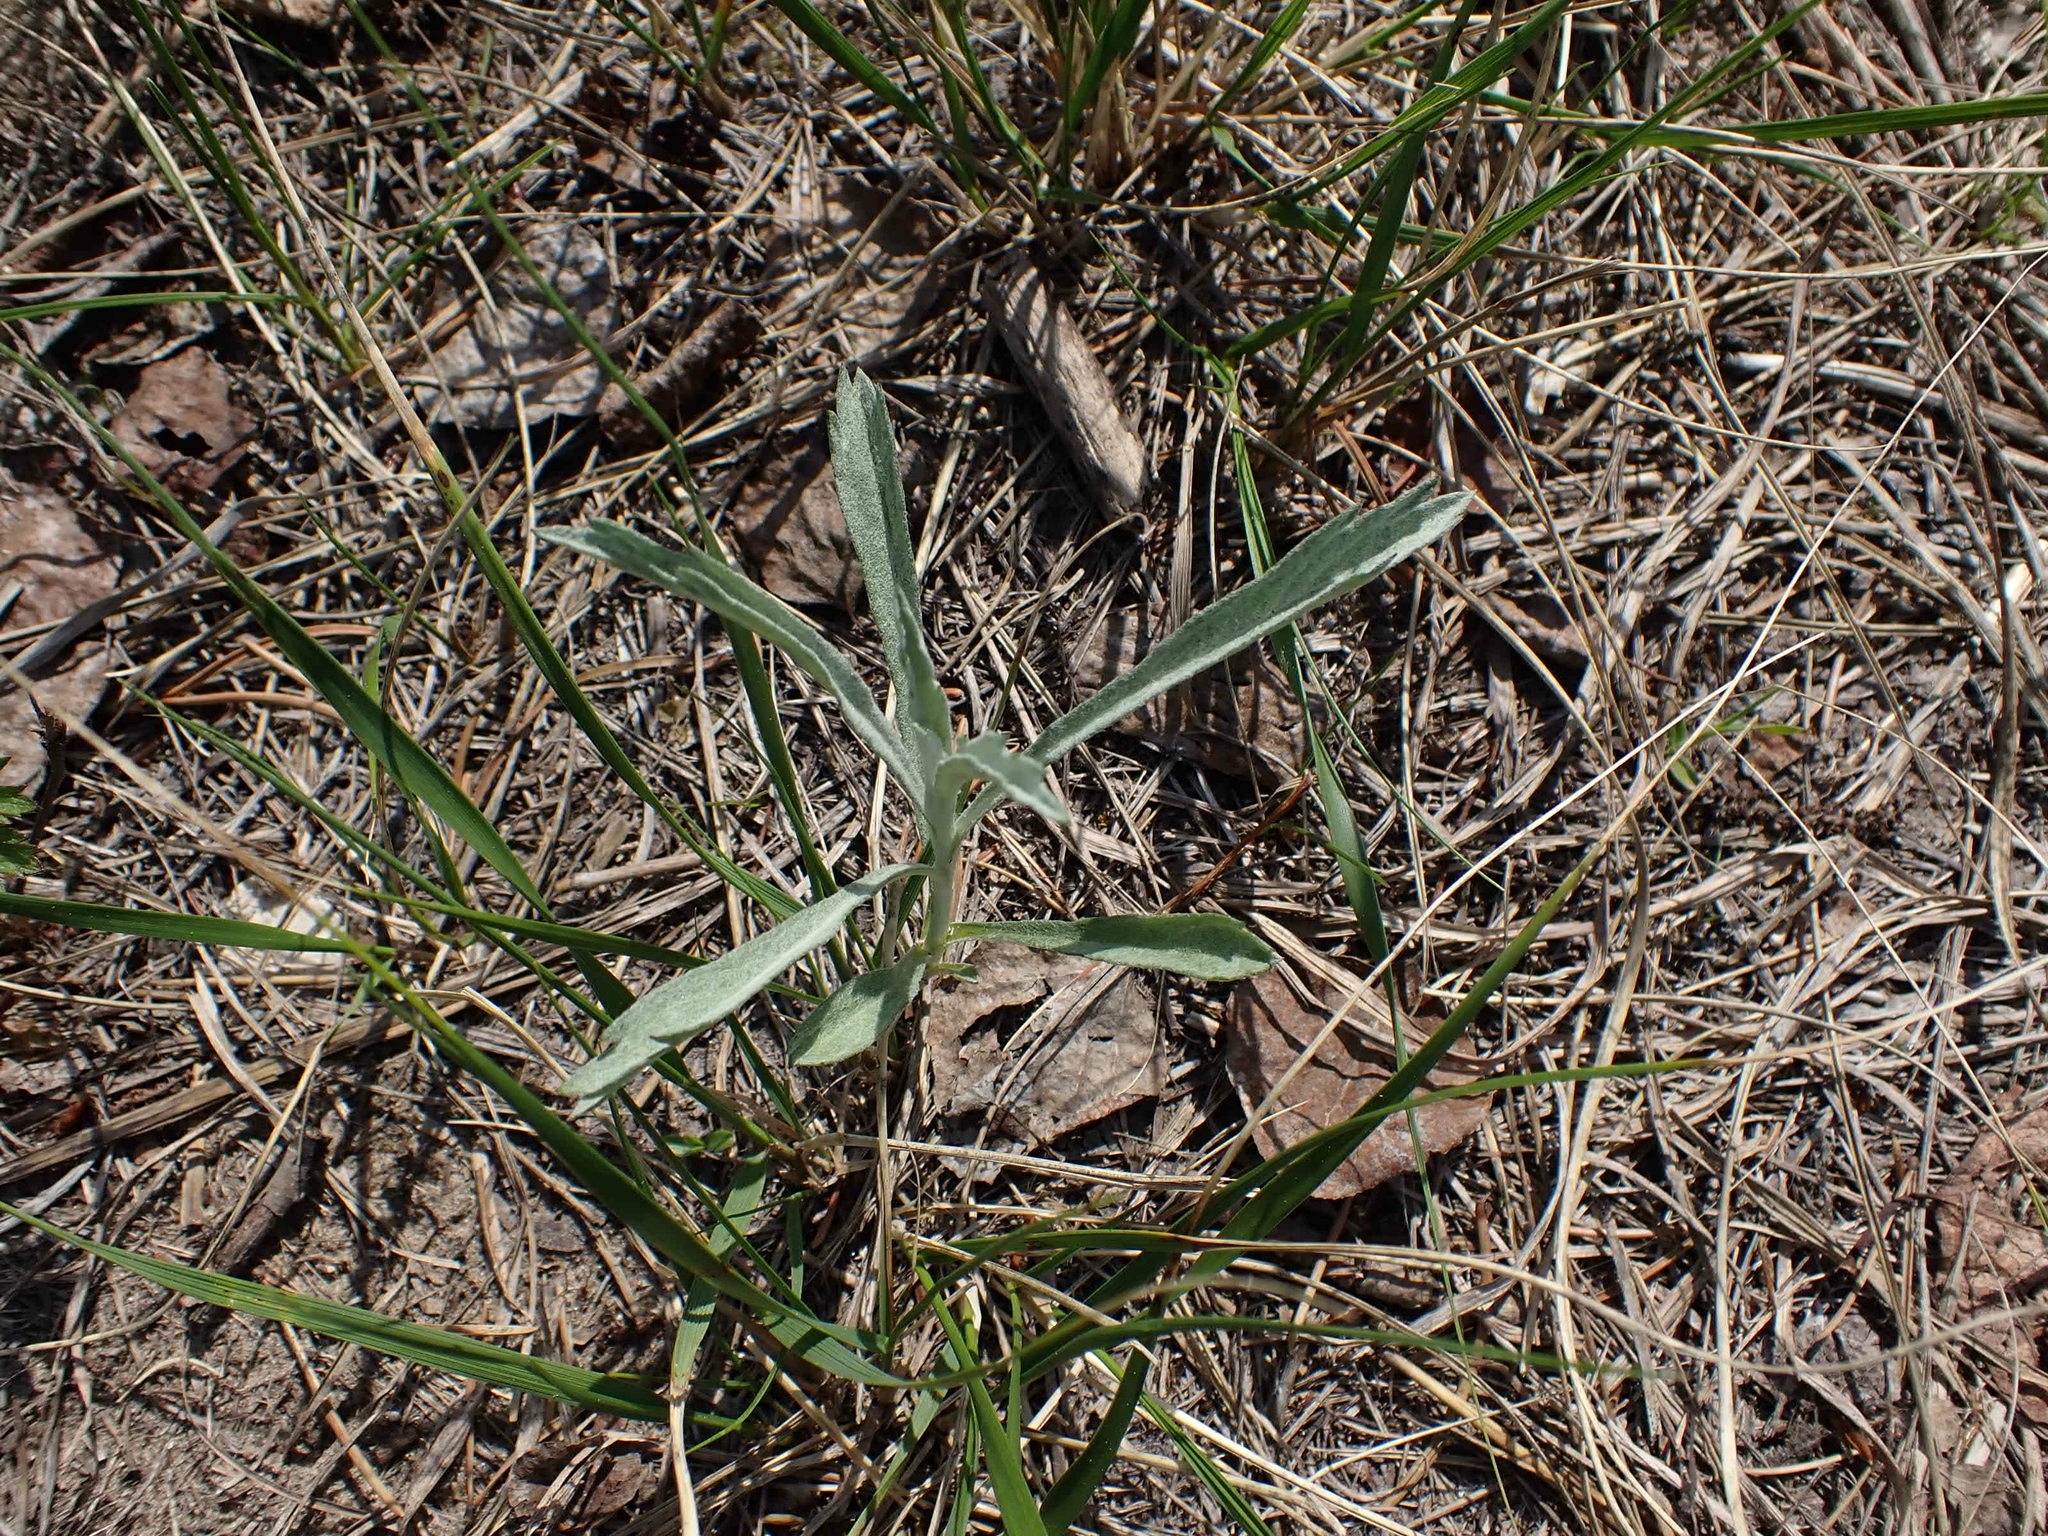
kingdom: Plantae
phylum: Tracheophyta
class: Magnoliopsida
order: Asterales
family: Asteraceae
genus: Artemisia
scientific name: Artemisia ludoviciana
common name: Western mugwort
